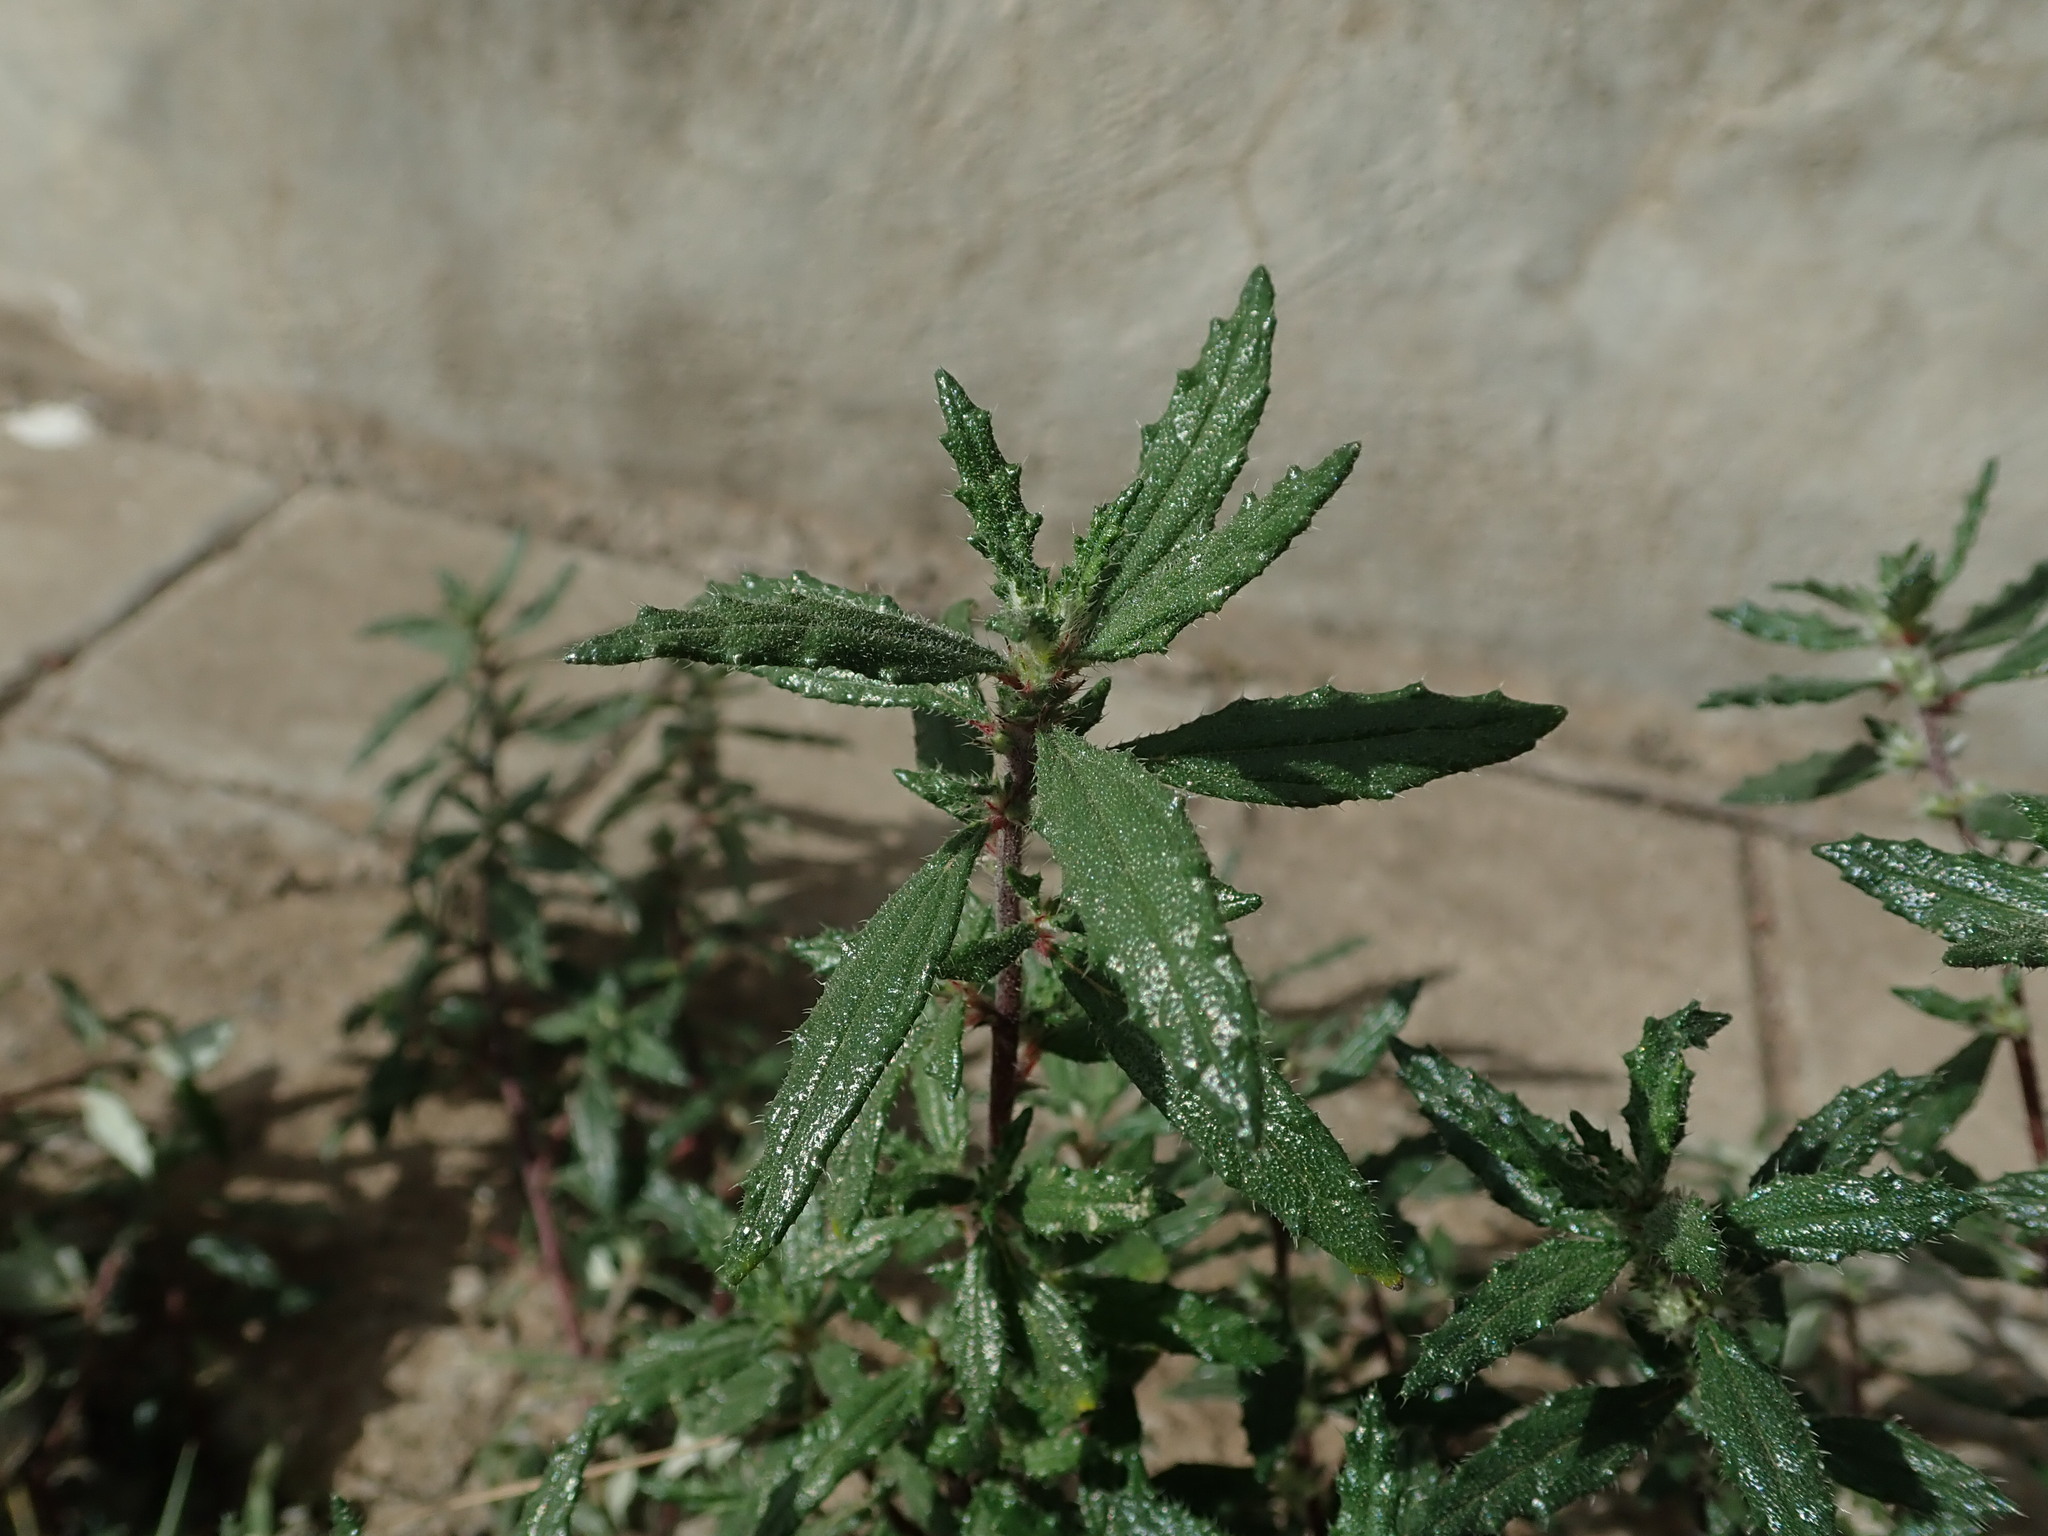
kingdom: Plantae
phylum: Tracheophyta
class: Magnoliopsida
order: Rosales
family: Urticaceae
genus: Forsskaolea
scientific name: Forsskaolea angustifolia
